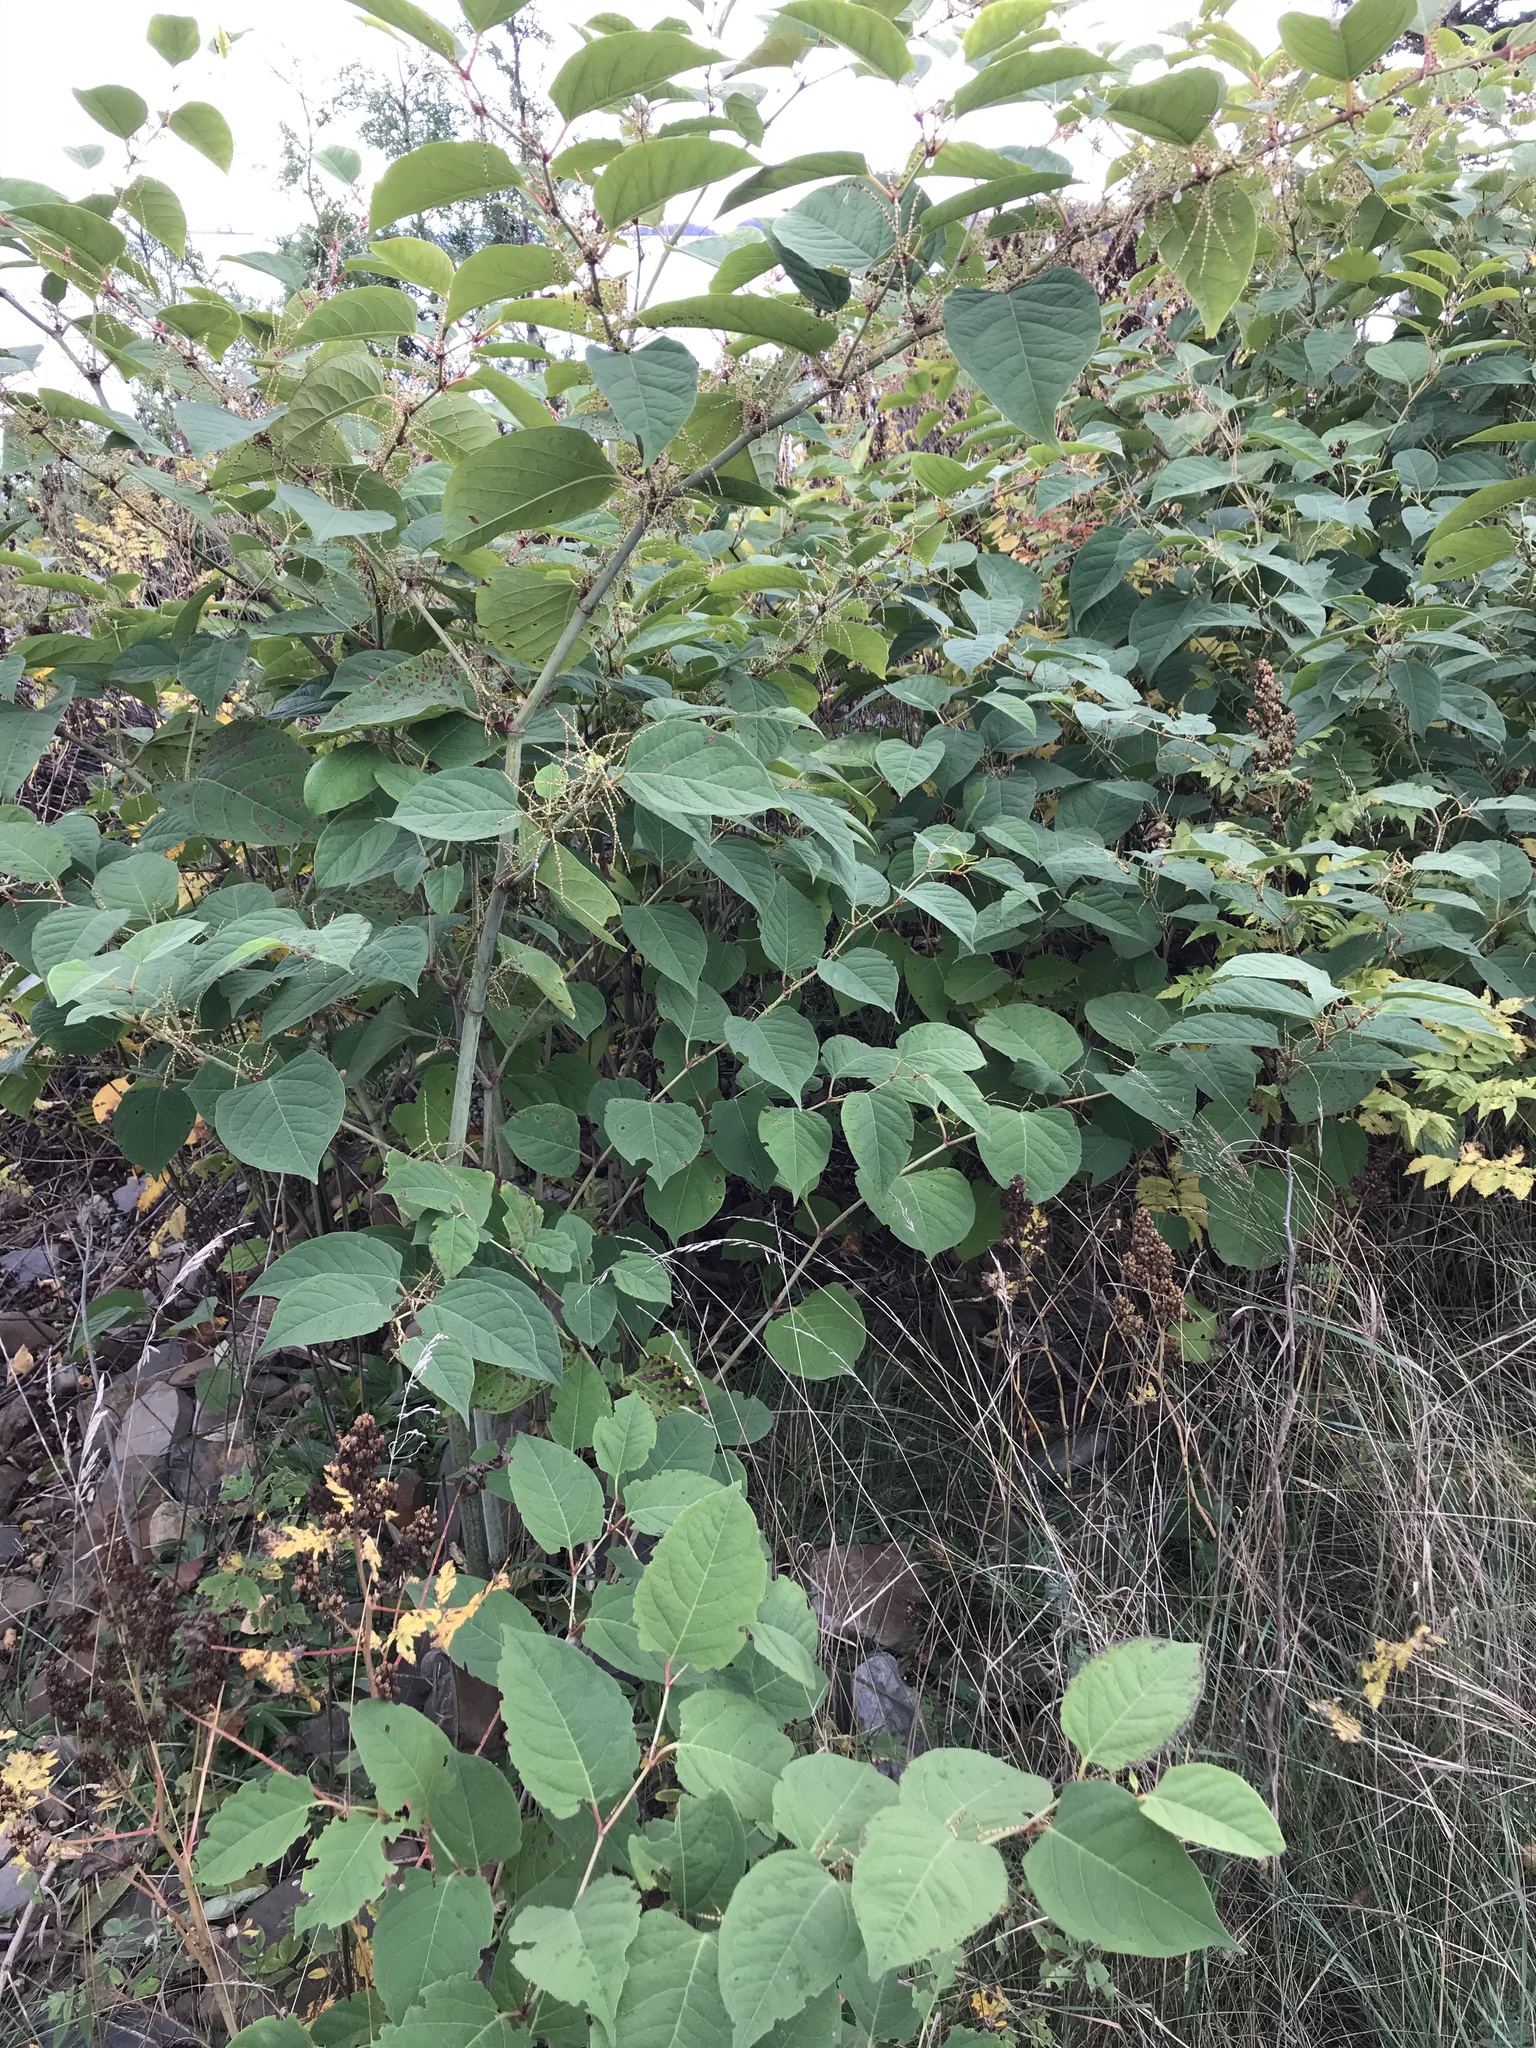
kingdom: Plantae
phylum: Tracheophyta
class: Magnoliopsida
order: Caryophyllales
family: Polygonaceae
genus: Reynoutria
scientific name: Reynoutria japonica
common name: Japanese knotweed
